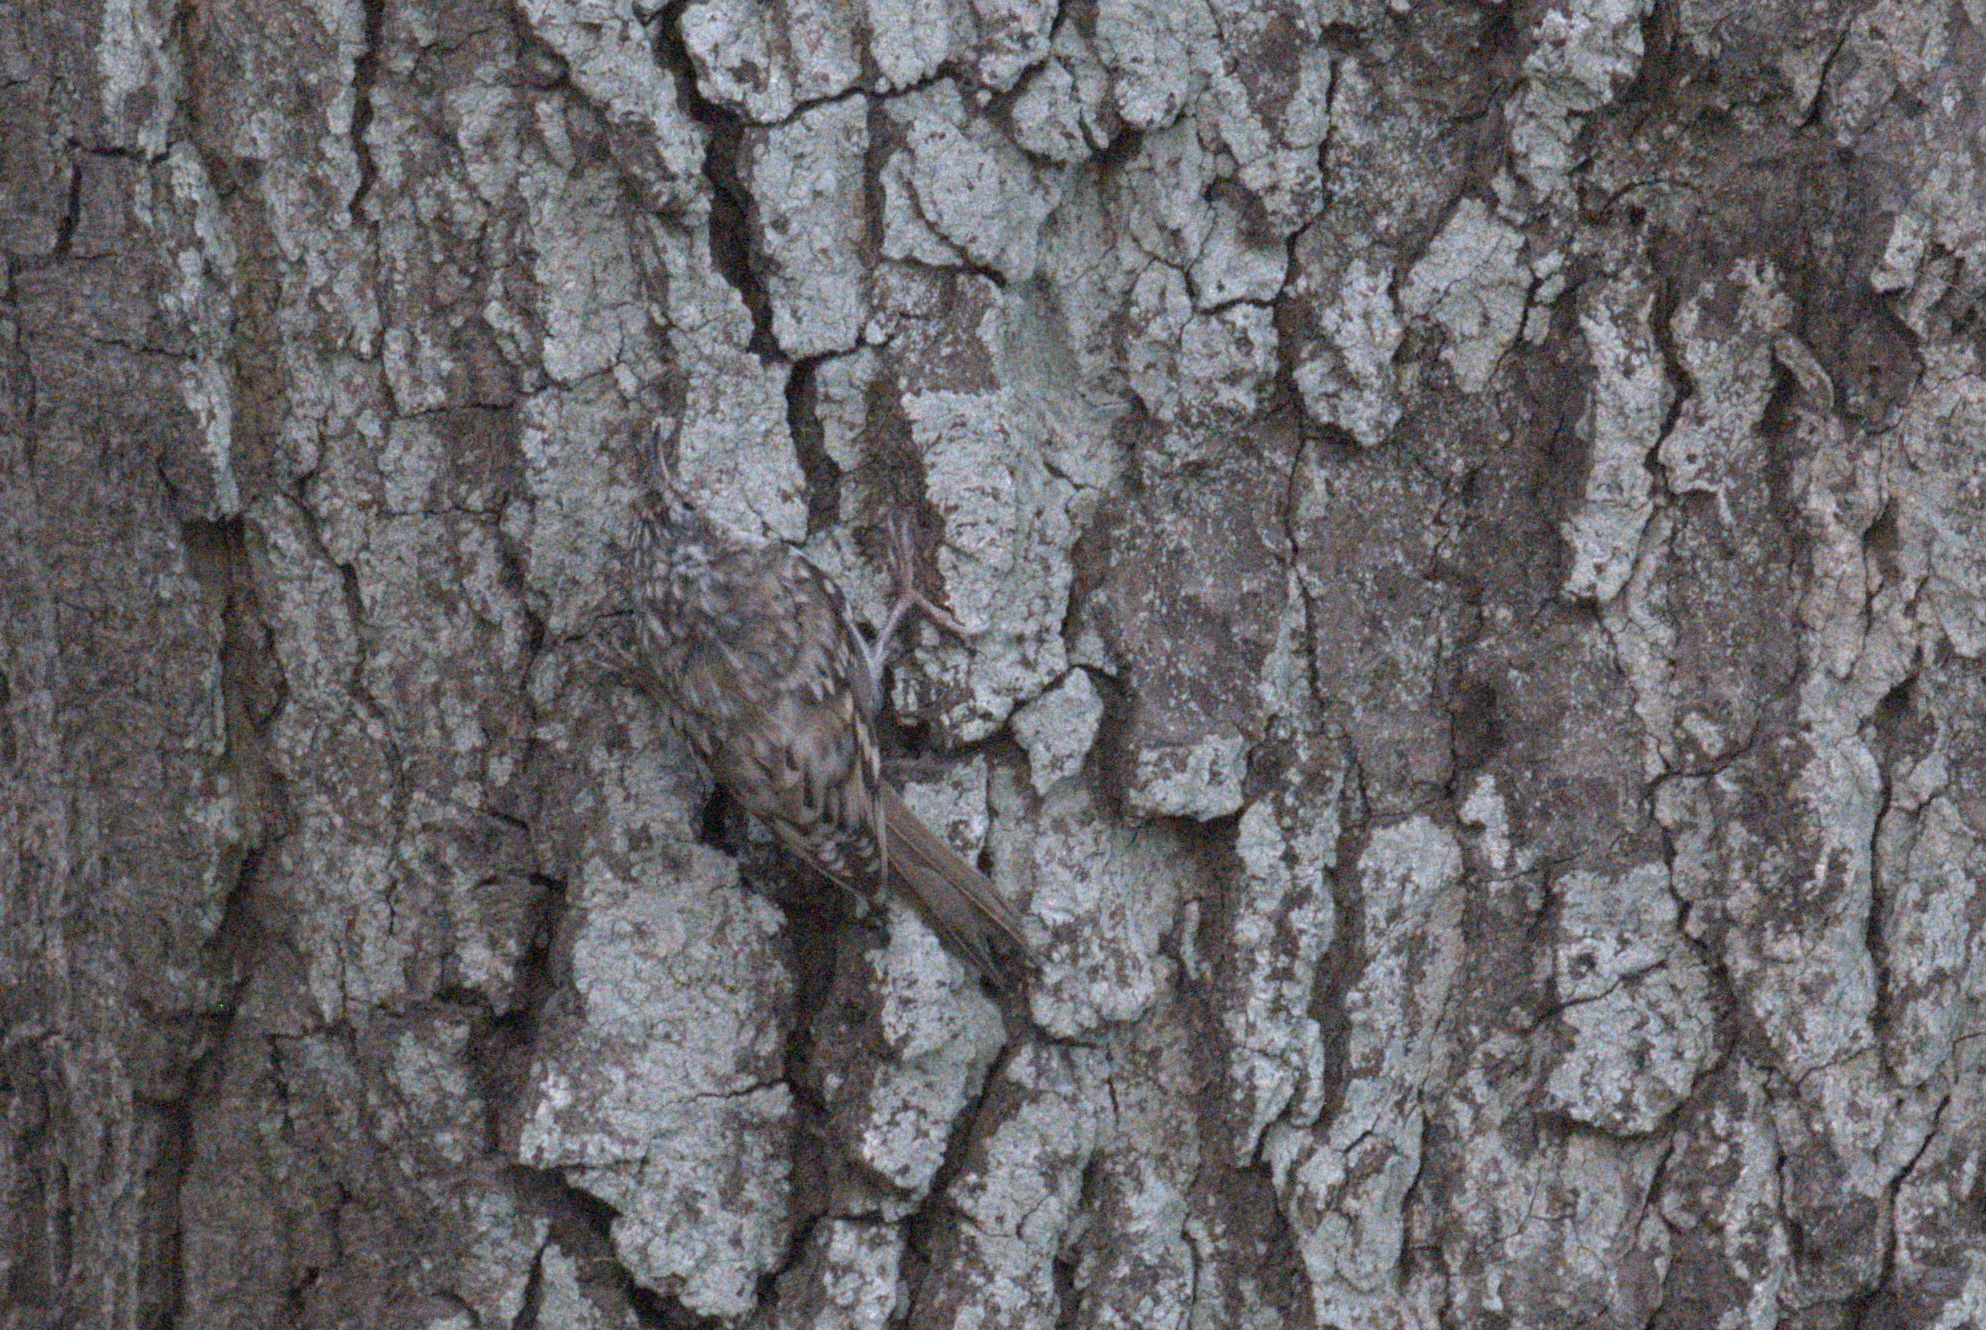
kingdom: Animalia
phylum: Chordata
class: Aves
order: Passeriformes
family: Certhiidae
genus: Certhia
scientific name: Certhia familiaris
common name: Eurasian treecreeper
